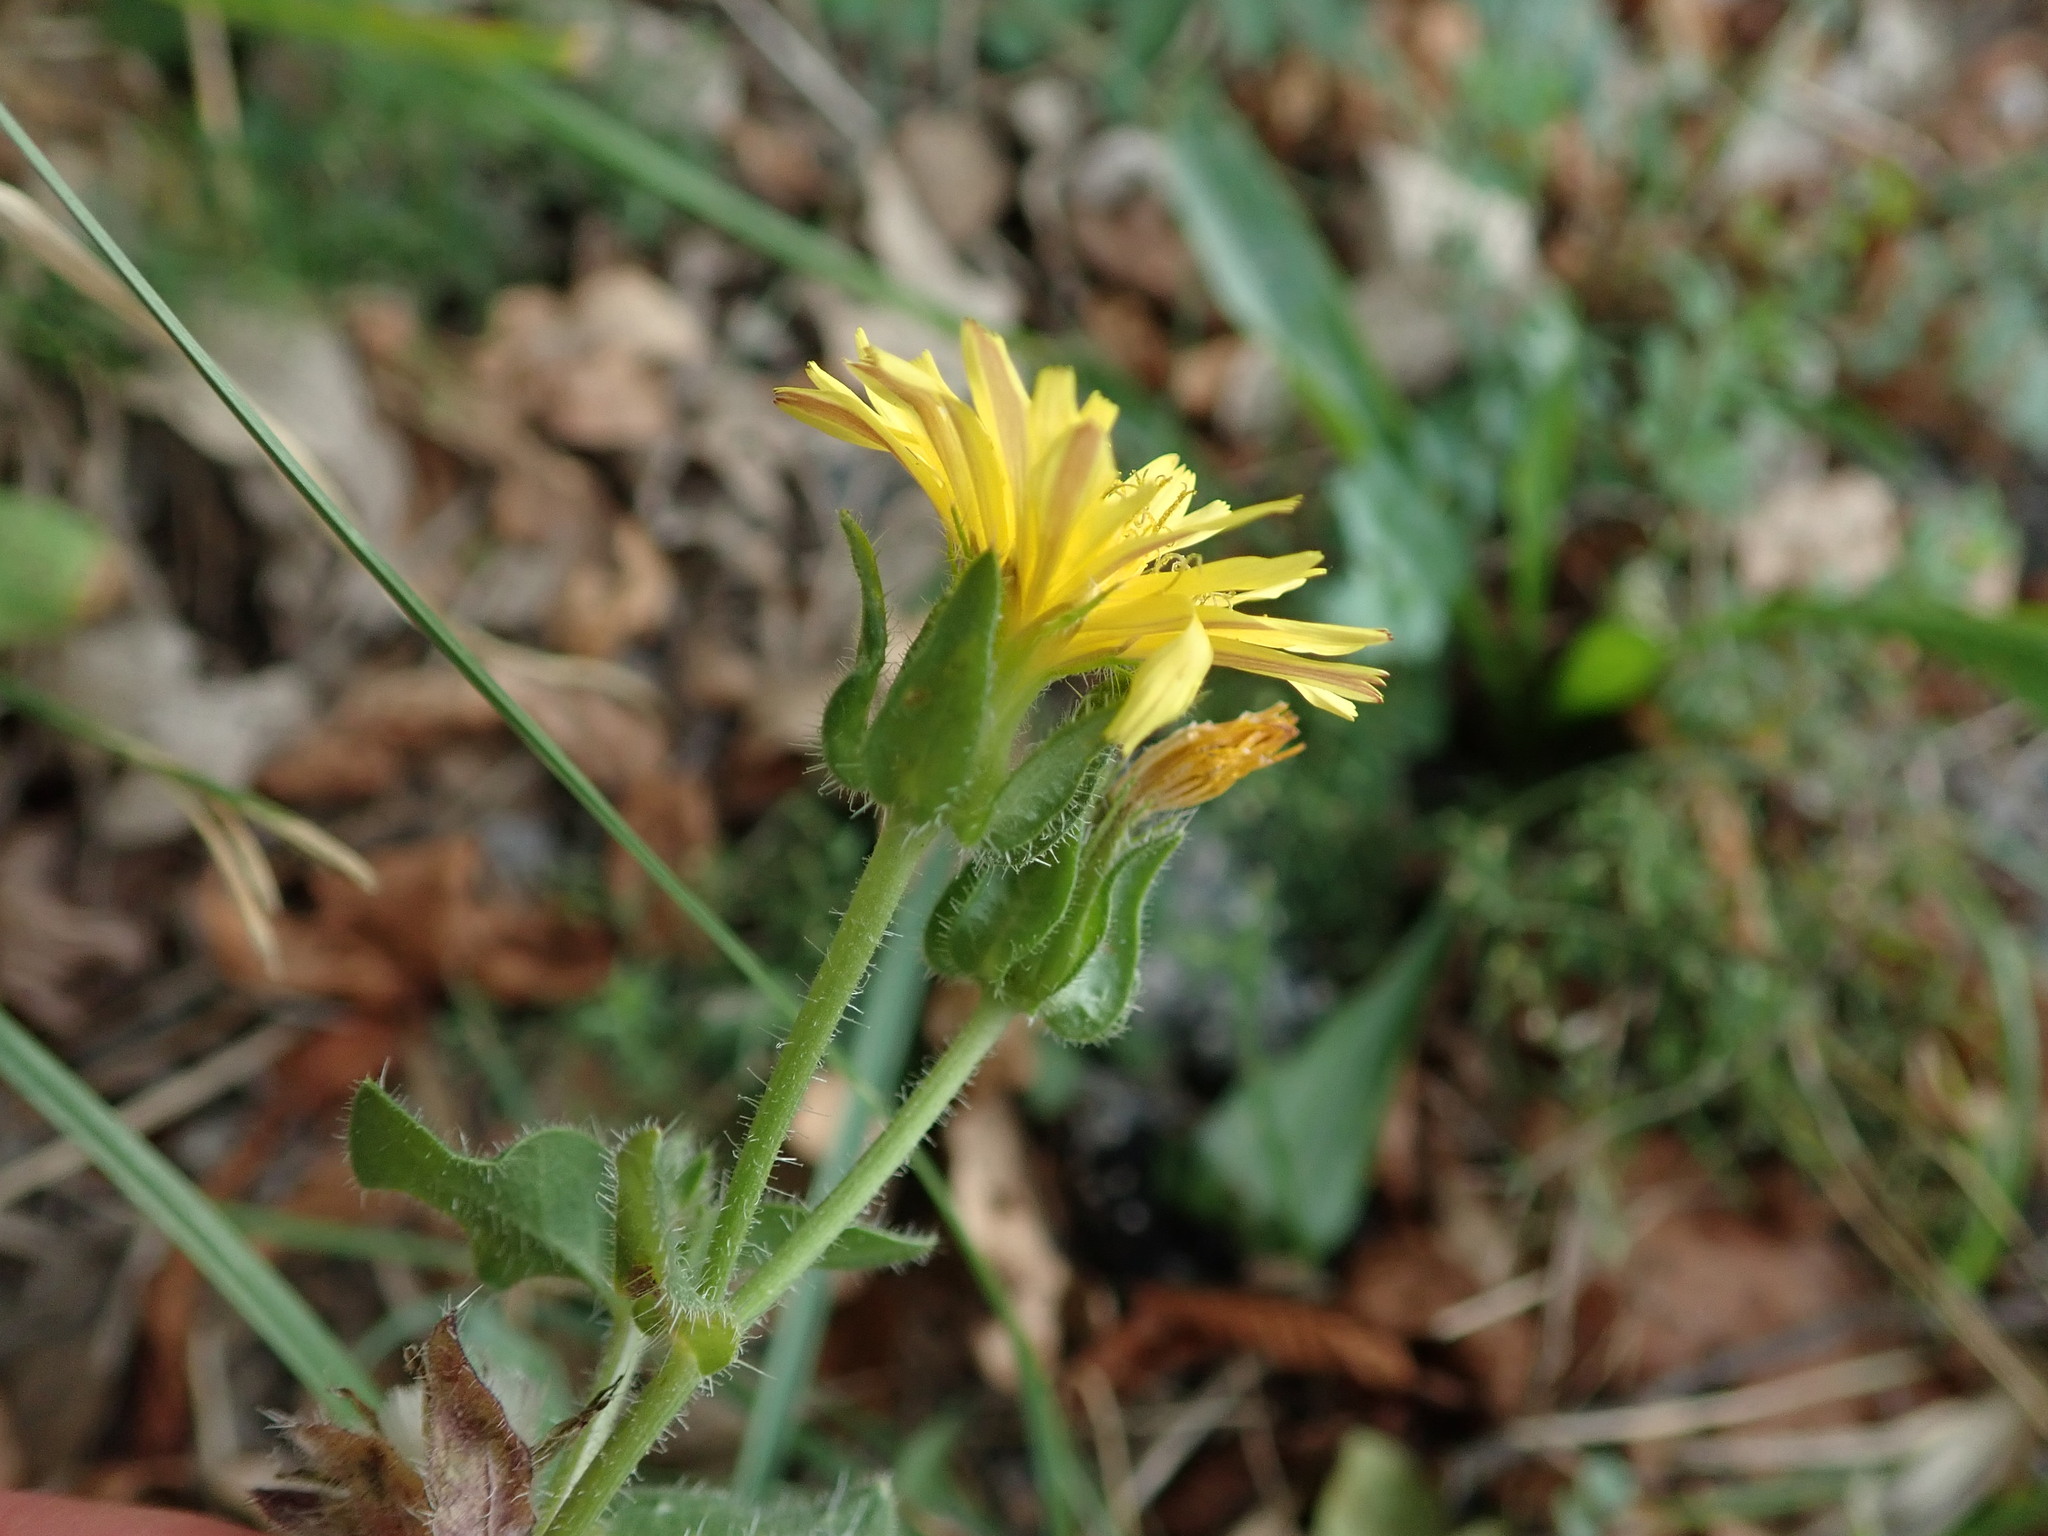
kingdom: Plantae
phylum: Tracheophyta
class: Magnoliopsida
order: Asterales
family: Asteraceae
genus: Helminthotheca
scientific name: Helminthotheca echioides
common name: Ox-tongue
